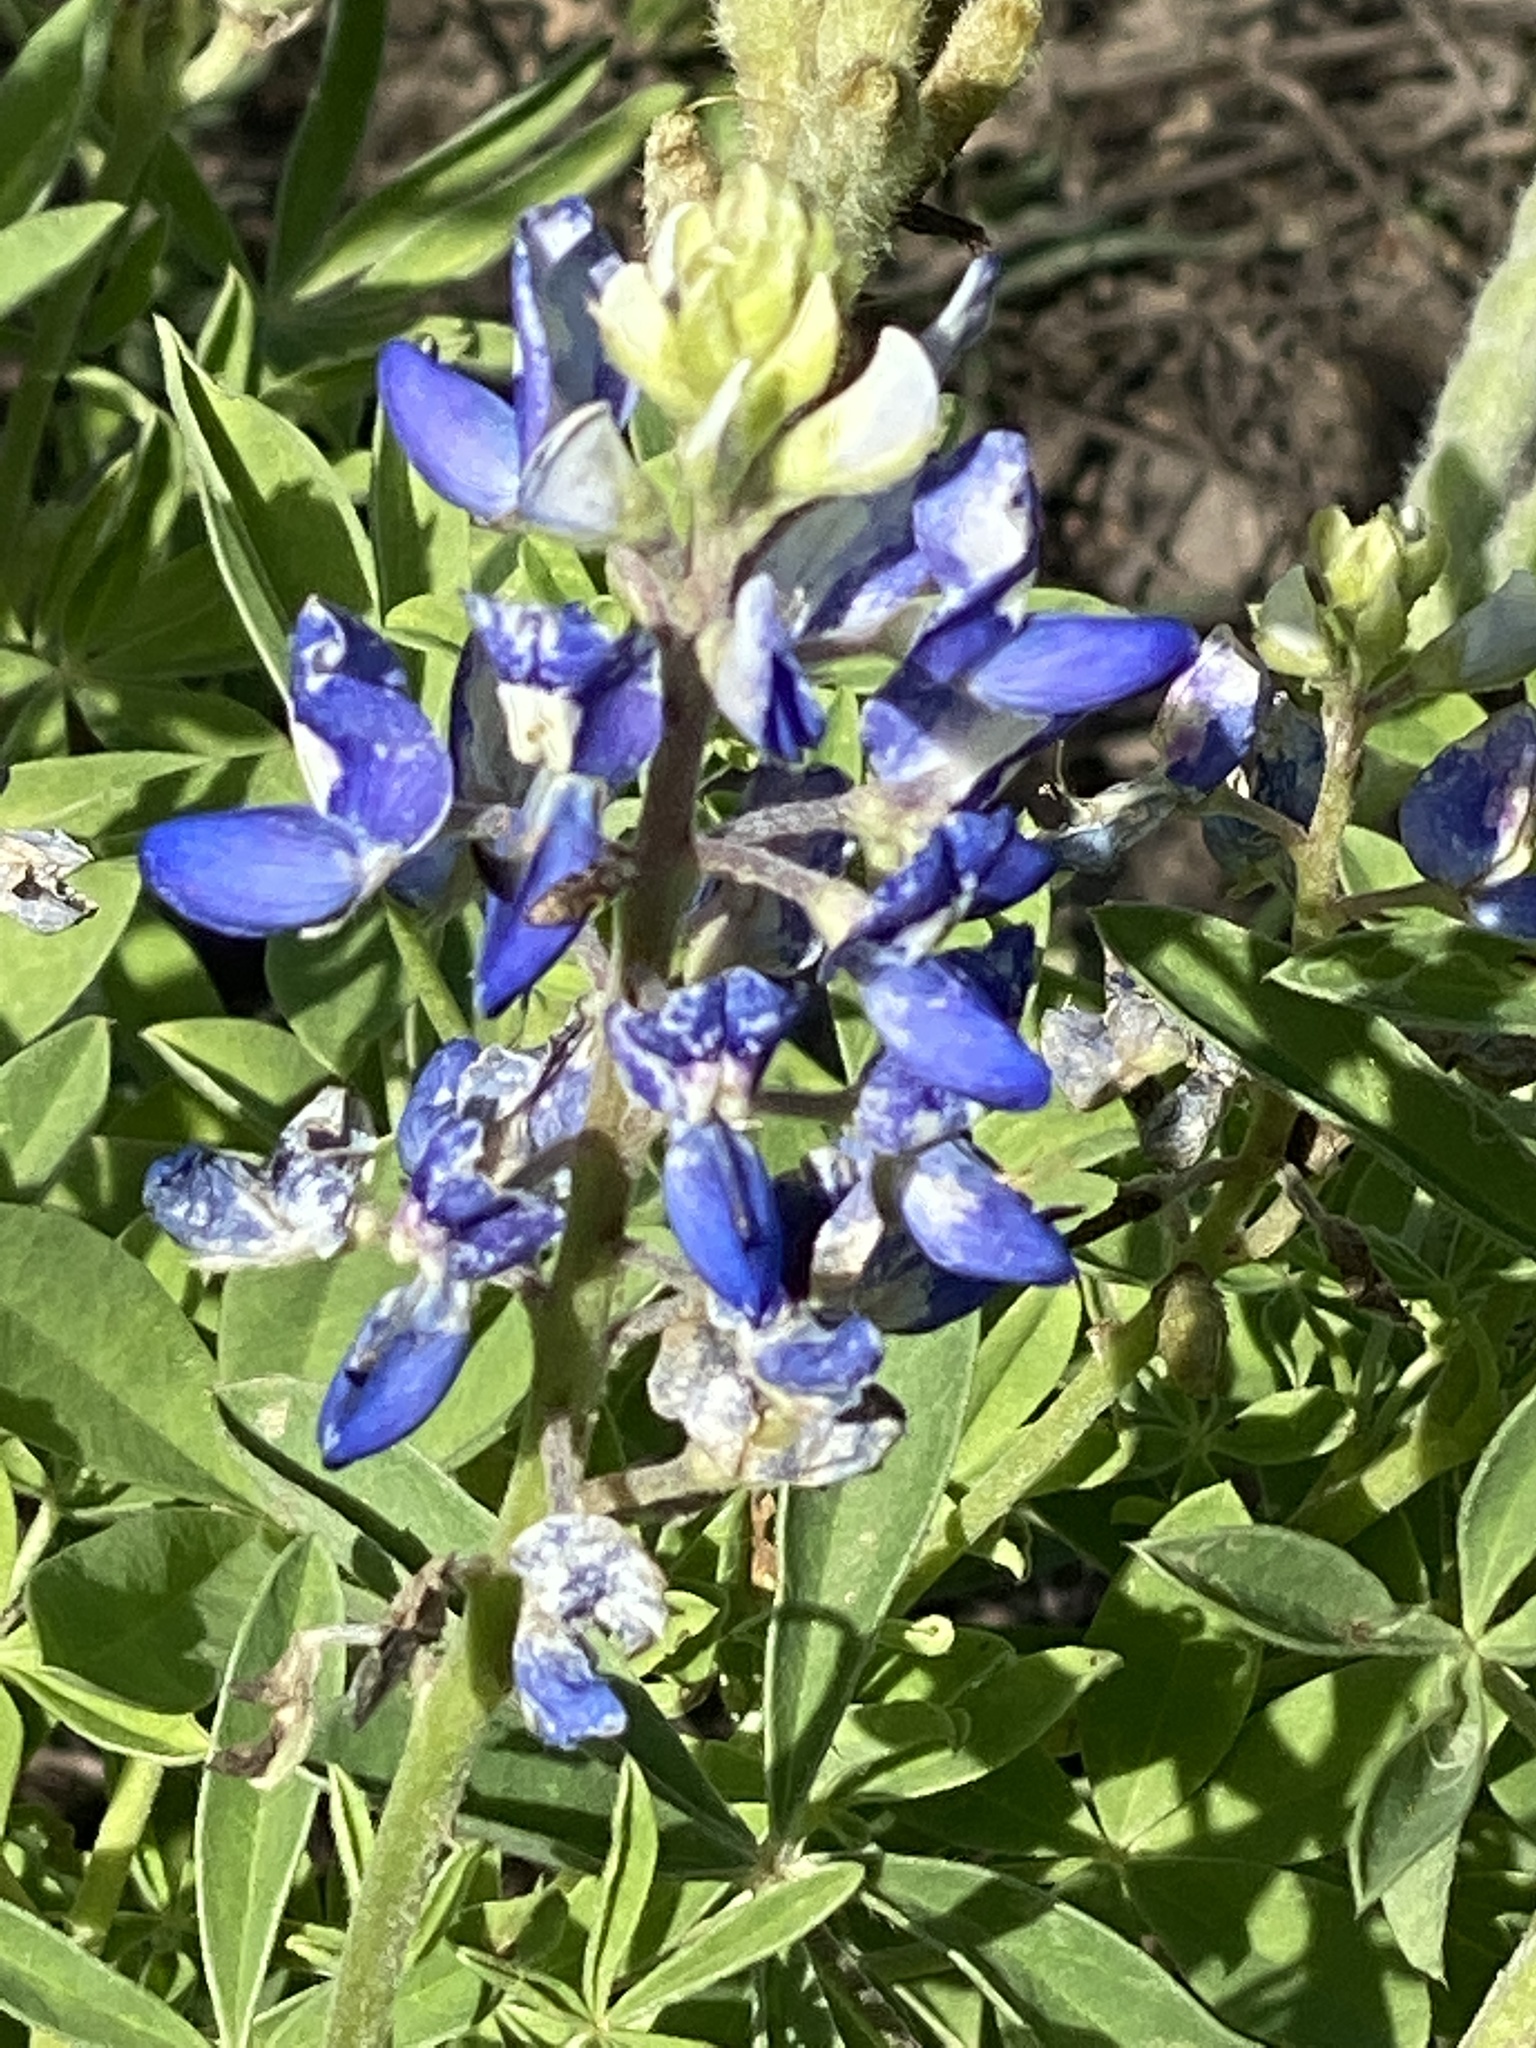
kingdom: Plantae
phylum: Tracheophyta
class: Magnoliopsida
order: Fabales
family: Fabaceae
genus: Lupinus
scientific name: Lupinus texensis
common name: Texas bluebonnet
